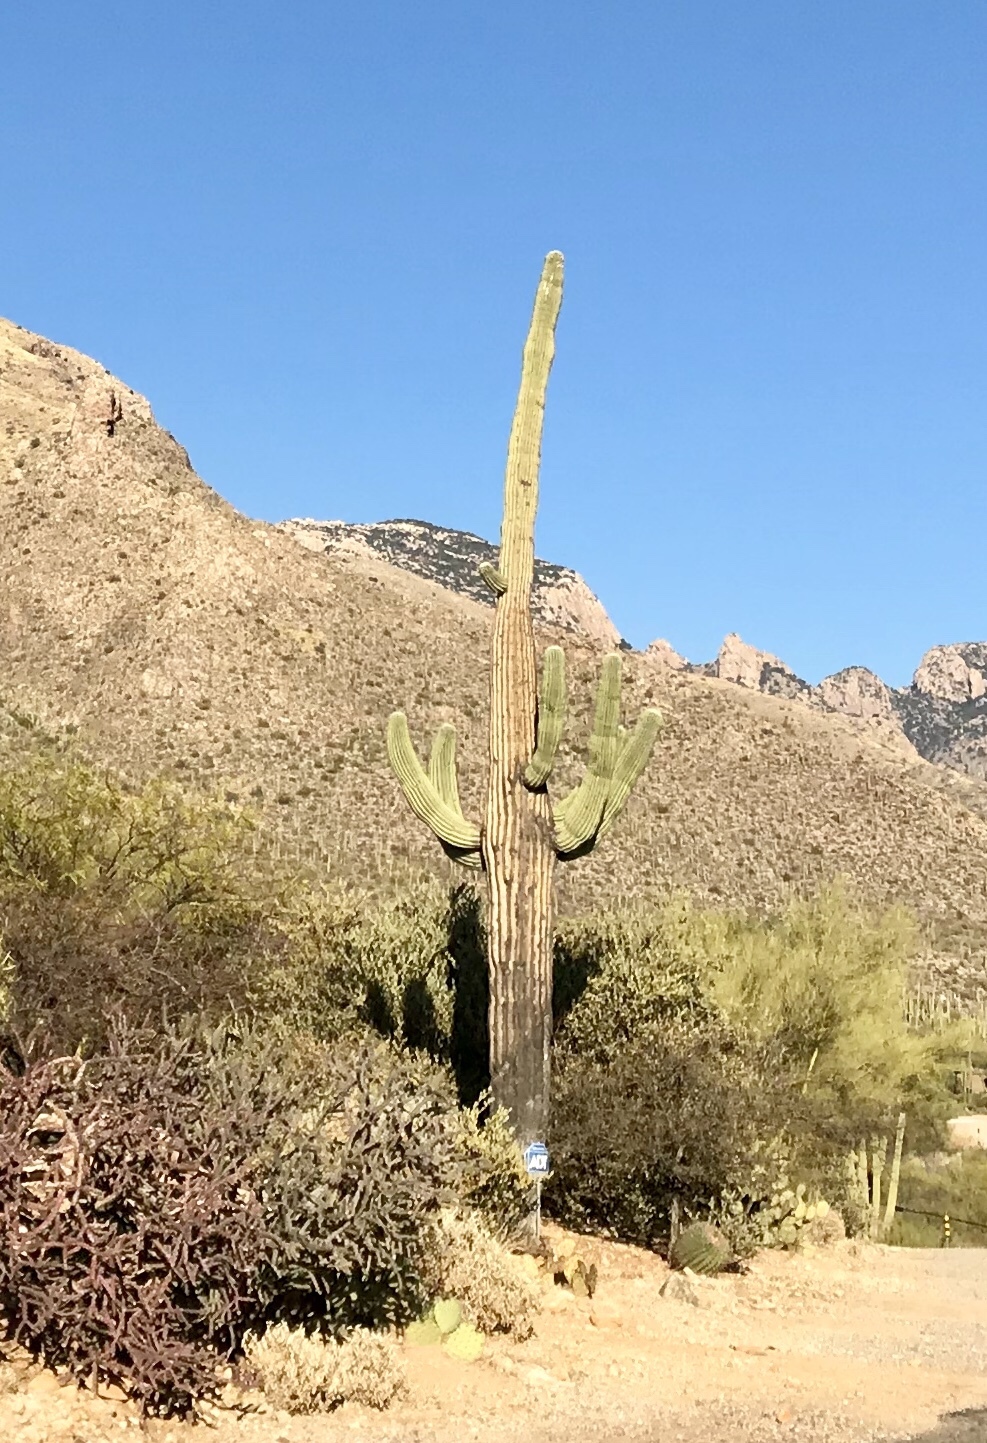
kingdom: Plantae
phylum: Tracheophyta
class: Magnoliopsida
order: Caryophyllales
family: Cactaceae
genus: Carnegiea
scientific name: Carnegiea gigantea
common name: Saguaro
